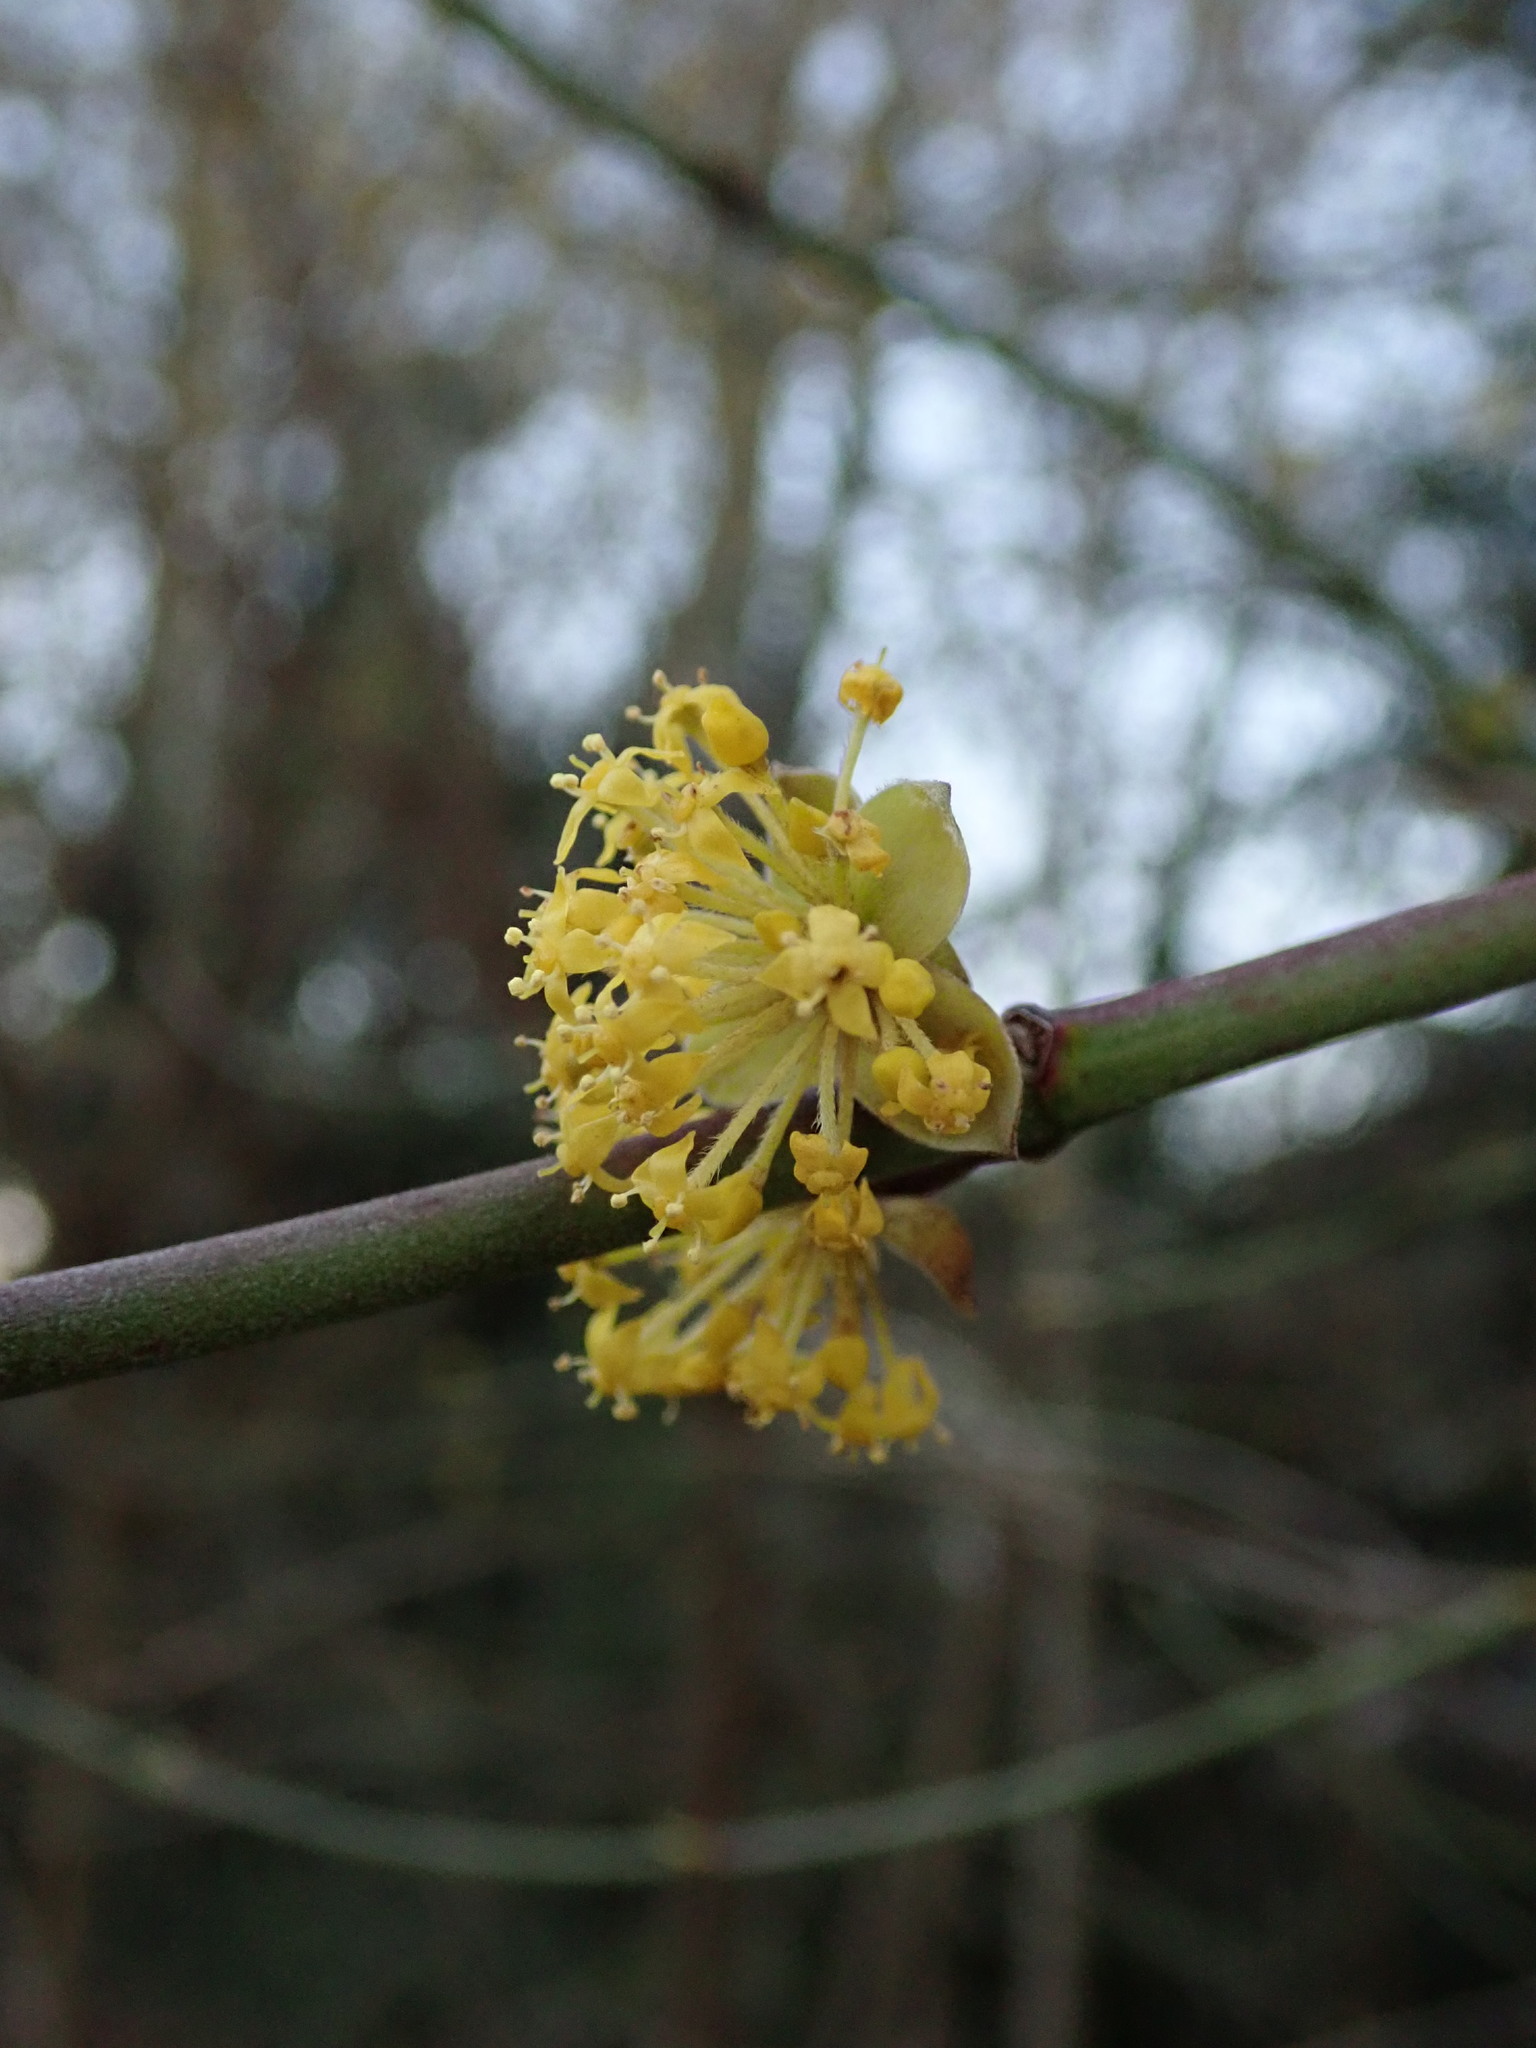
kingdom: Plantae
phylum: Tracheophyta
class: Magnoliopsida
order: Cornales
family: Cornaceae
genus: Cornus
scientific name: Cornus mas
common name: Cornelian-cherry
